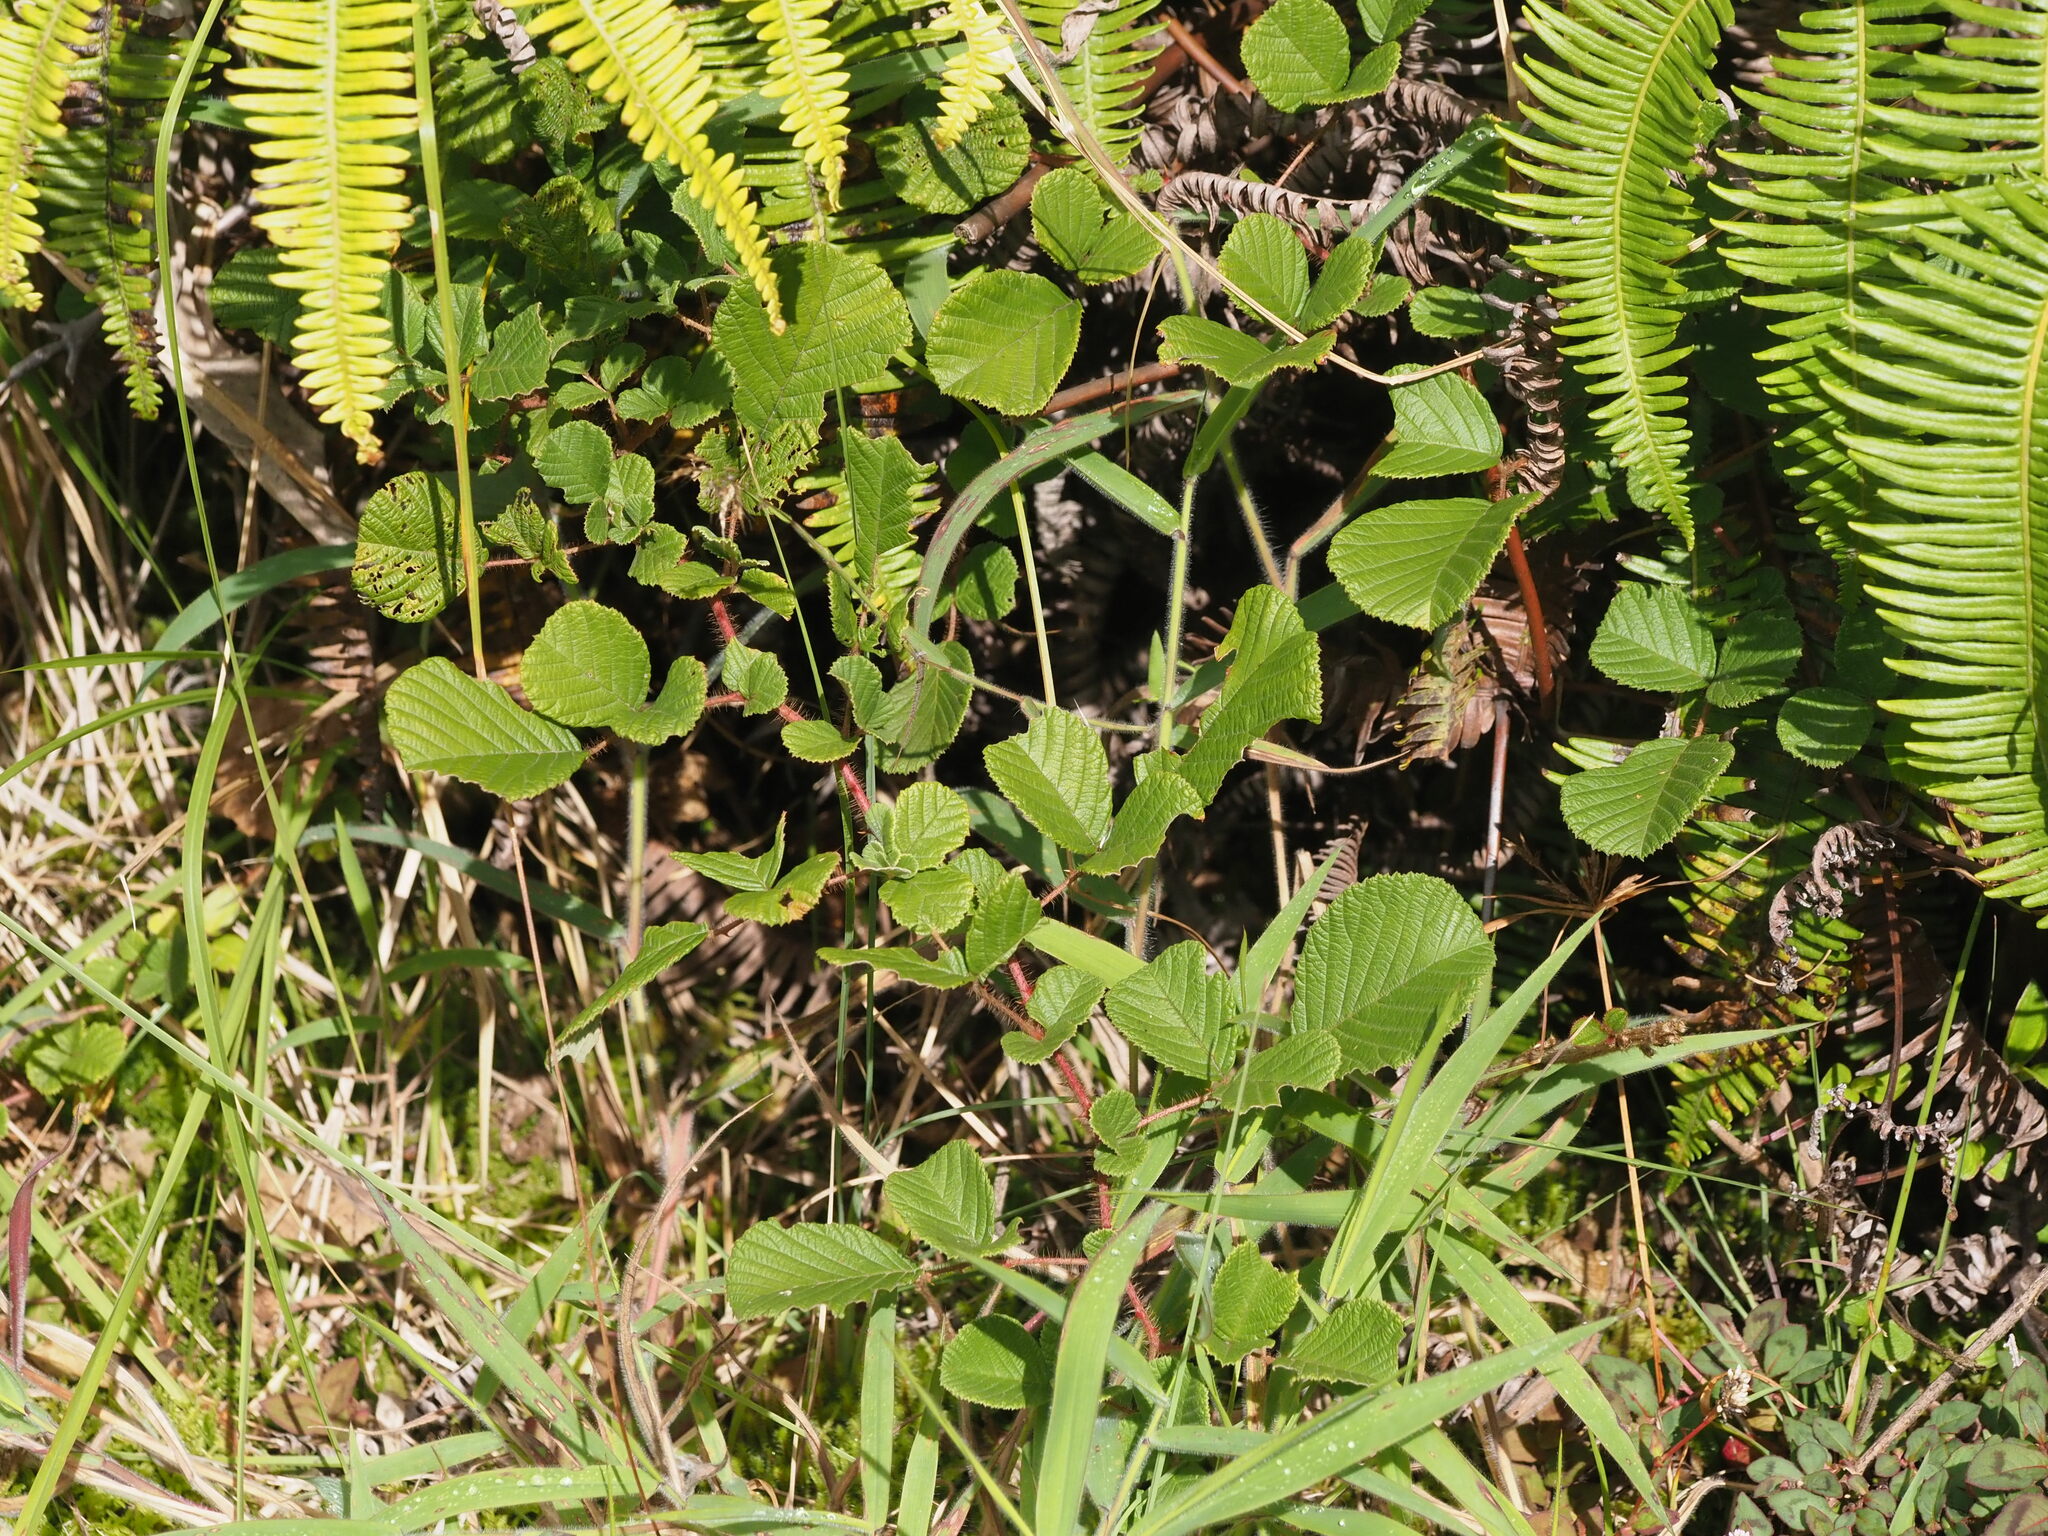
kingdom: Plantae
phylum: Tracheophyta
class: Magnoliopsida
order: Rosales
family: Rosaceae
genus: Rubus
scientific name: Rubus ellipticus
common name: Cheeseberry
